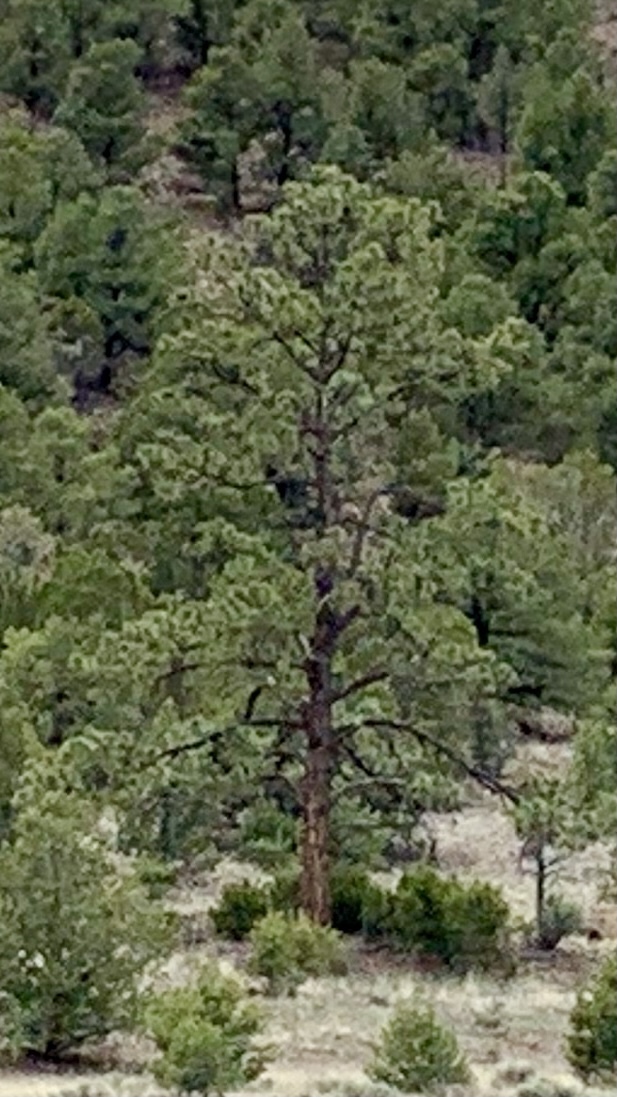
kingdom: Plantae
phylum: Tracheophyta
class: Pinopsida
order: Pinales
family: Pinaceae
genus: Pinus
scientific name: Pinus ponderosa
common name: Western yellow-pine
